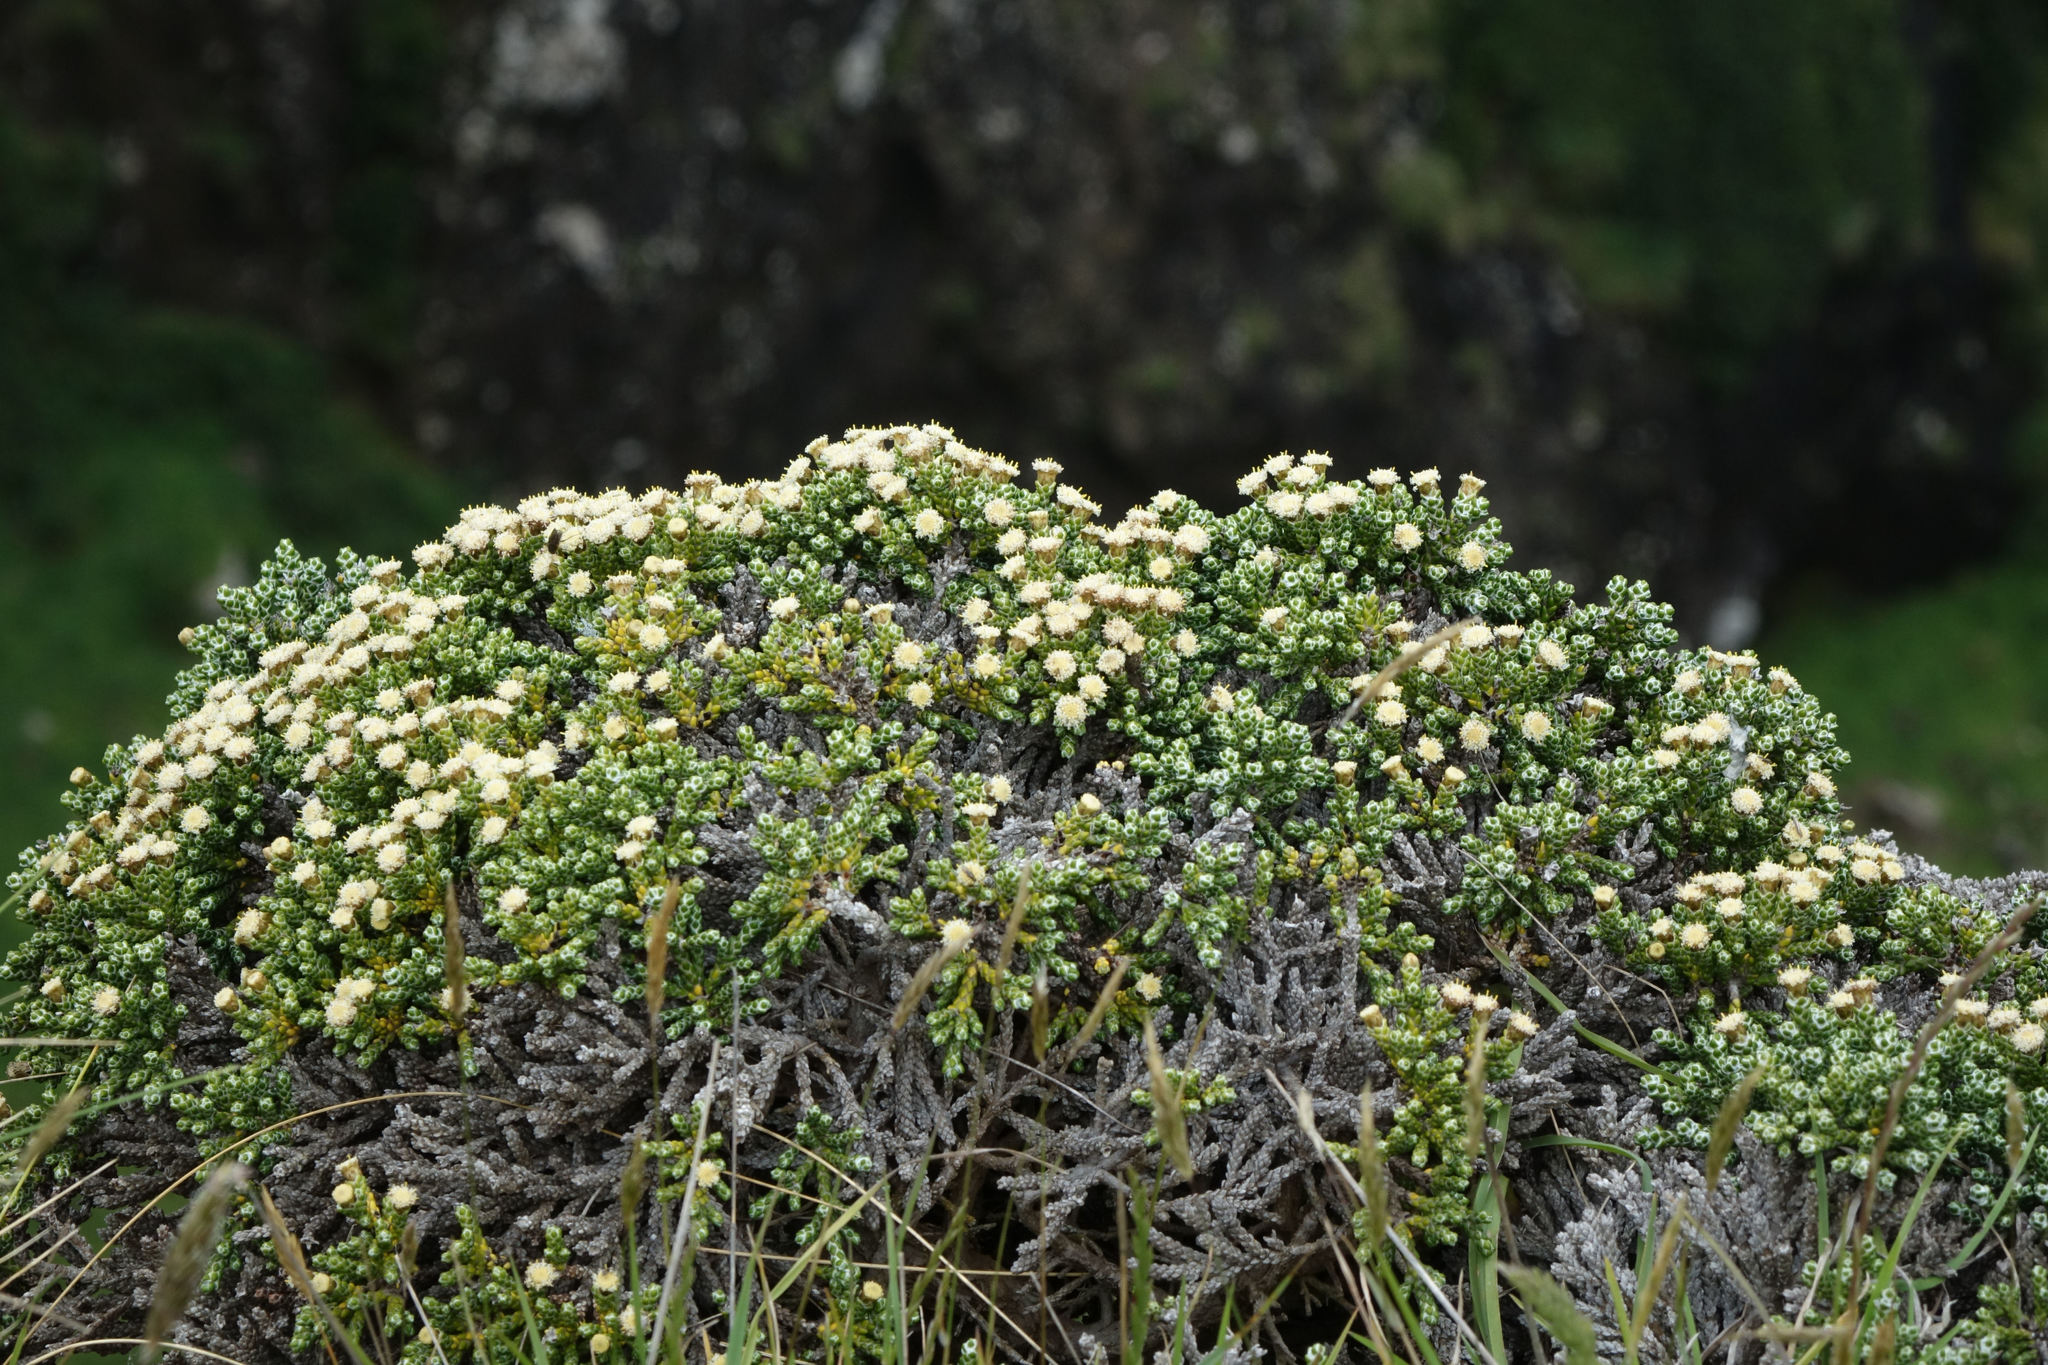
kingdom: Plantae
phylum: Tracheophyta
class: Magnoliopsida
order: Asterales
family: Asteraceae
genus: Ozothamnus
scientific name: Ozothamnus selago
